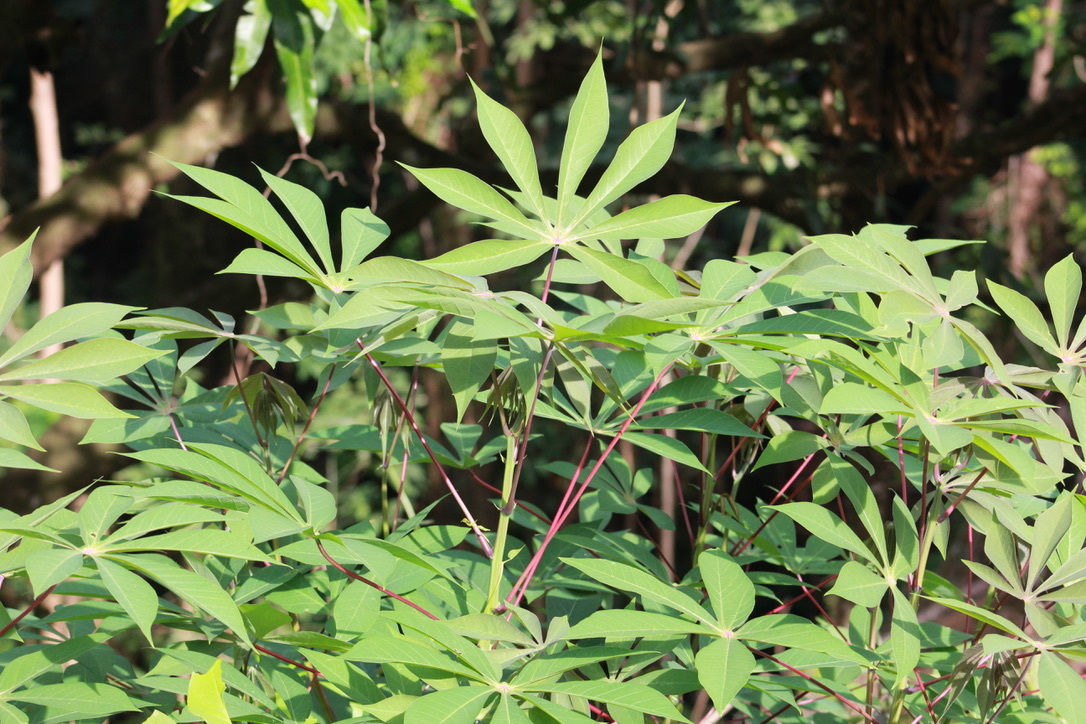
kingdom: Plantae
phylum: Tracheophyta
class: Magnoliopsida
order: Malpighiales
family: Euphorbiaceae
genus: Manihot
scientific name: Manihot esculenta
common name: Cassava
